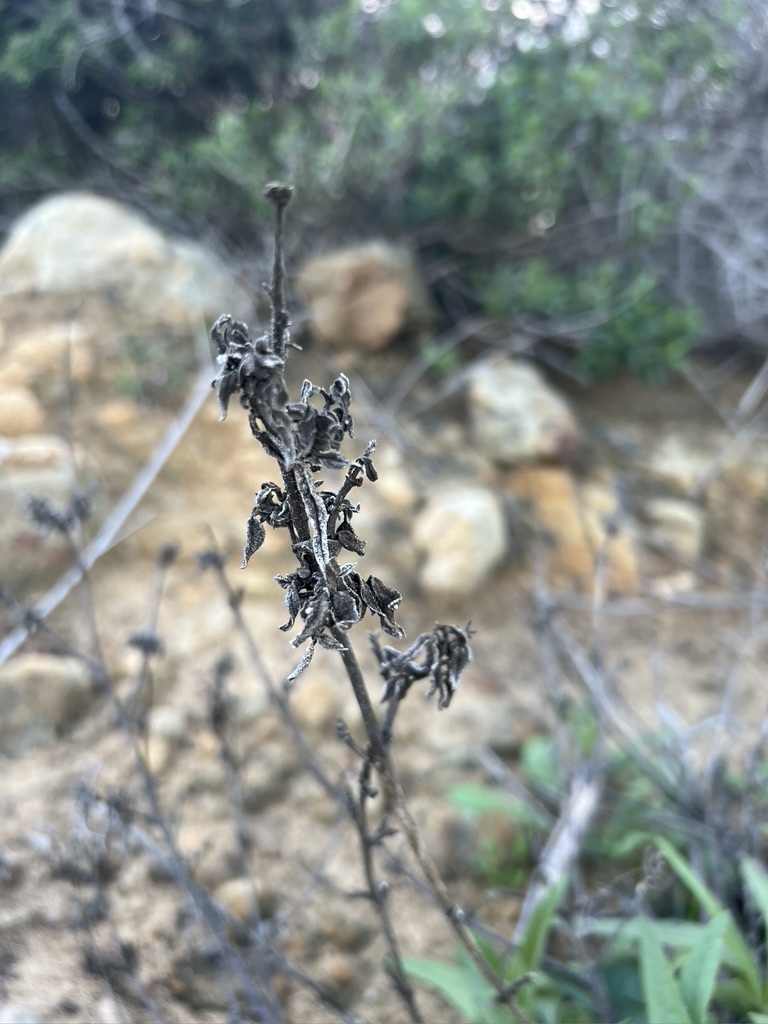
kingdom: Plantae
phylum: Tracheophyta
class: Magnoliopsida
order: Asterales
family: Asteraceae
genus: Helianthus
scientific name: Helianthus gracilentus
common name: Slender sunflower
